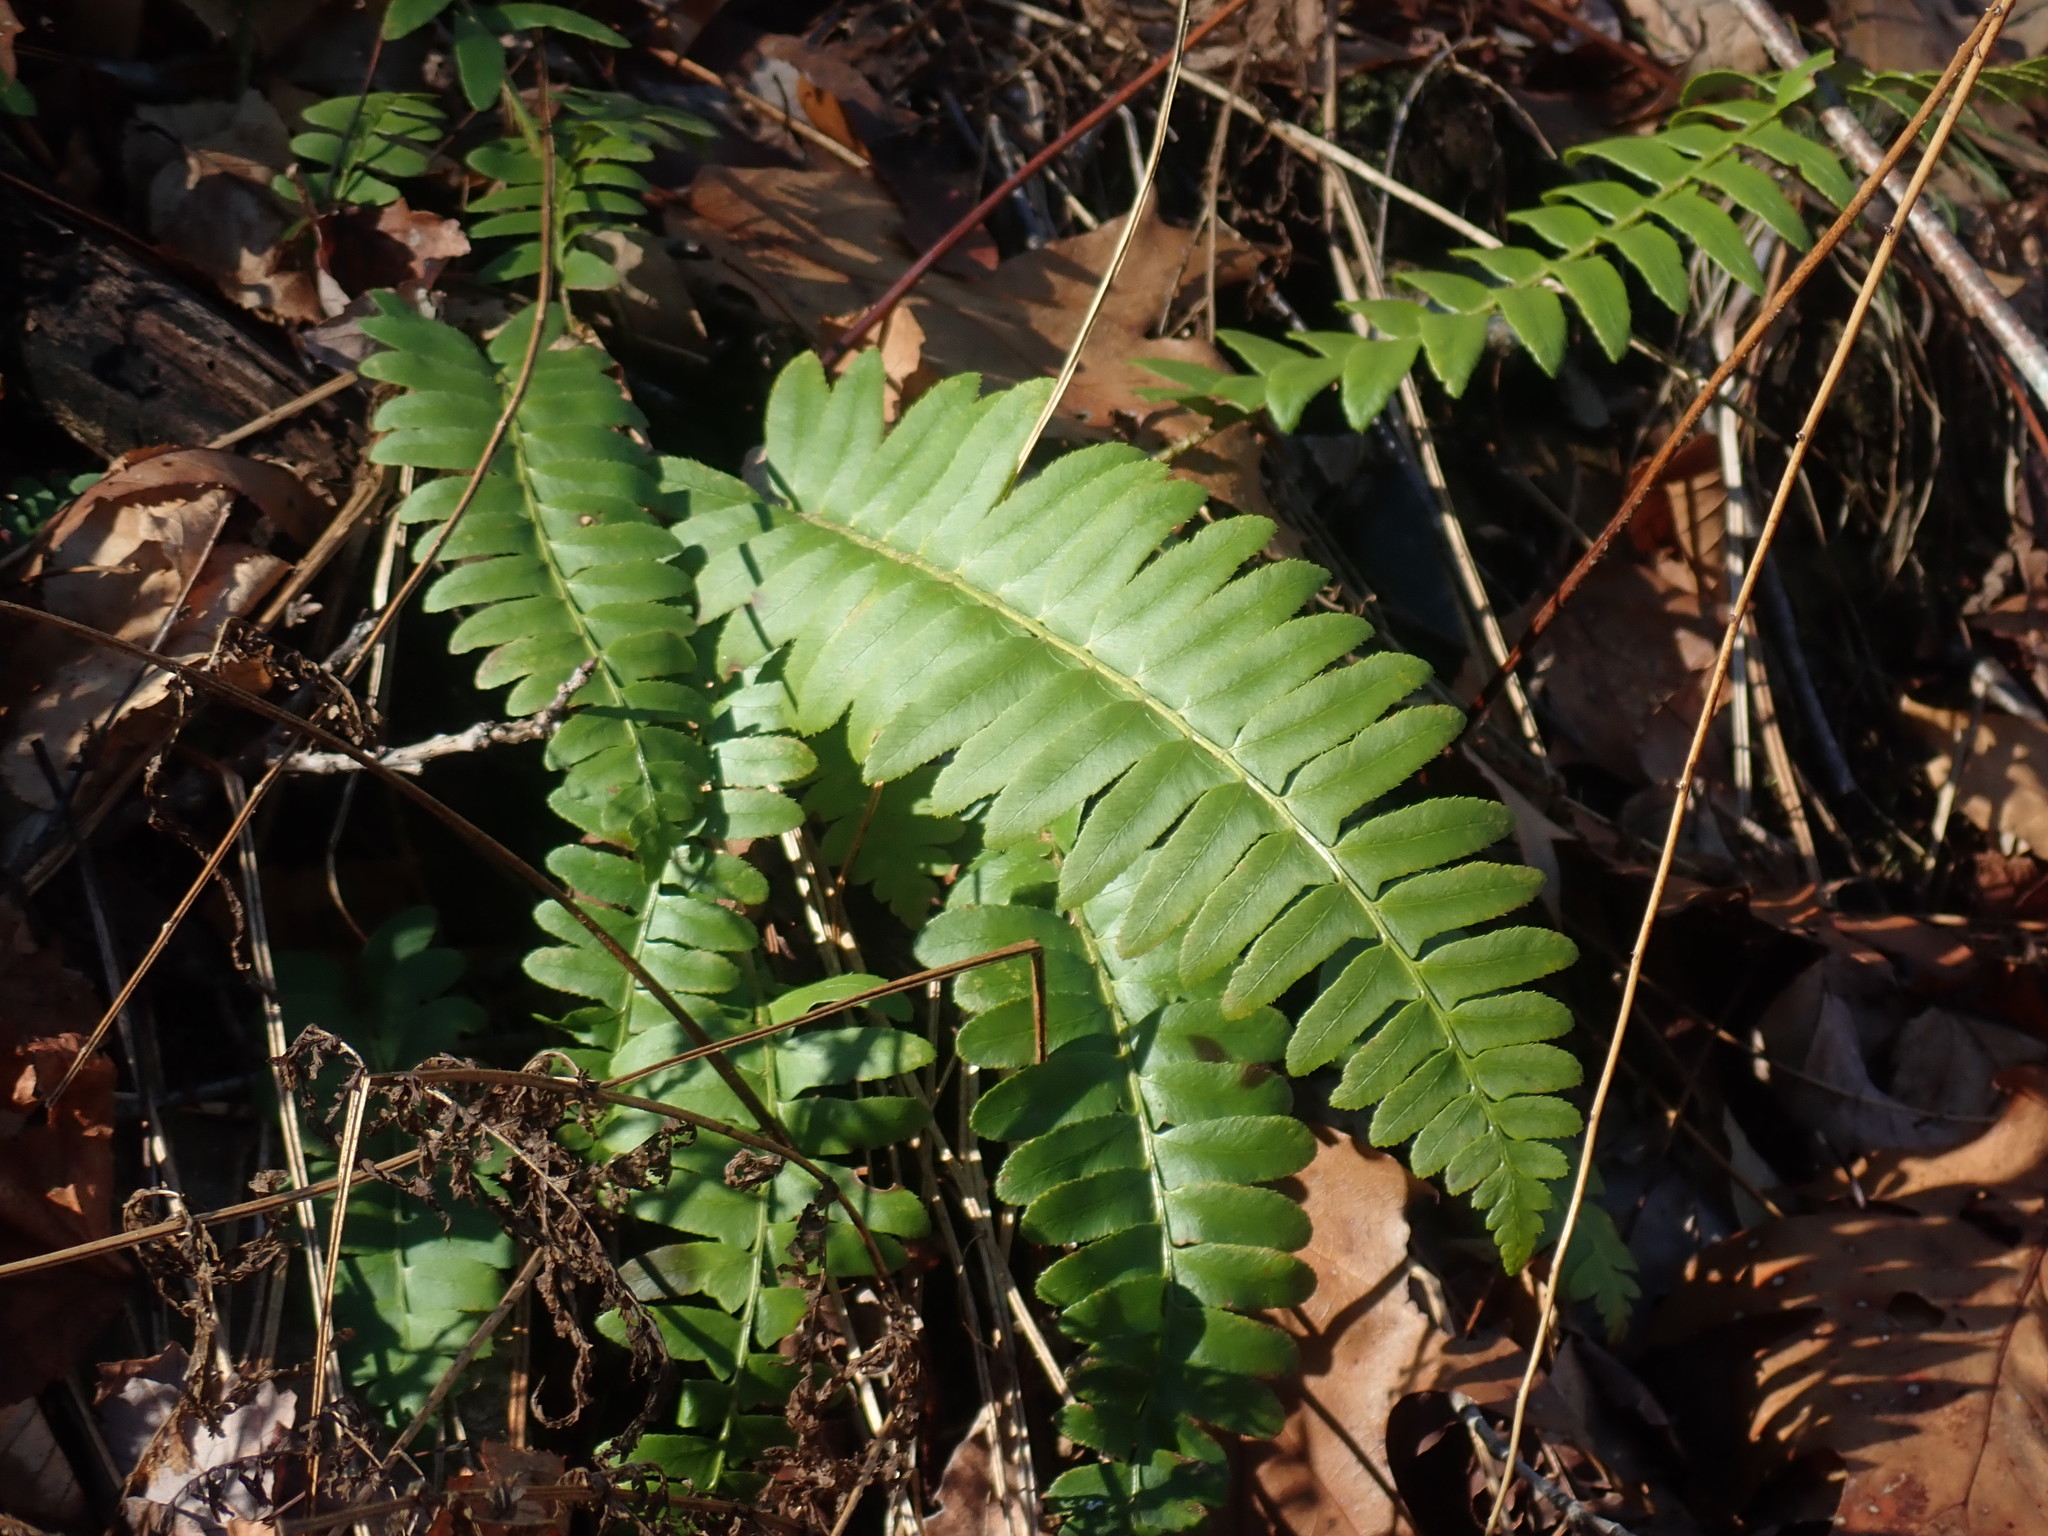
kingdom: Plantae
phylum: Tracheophyta
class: Polypodiopsida
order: Polypodiales
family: Dryopteridaceae
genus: Polystichum
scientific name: Polystichum acrostichoides
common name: Christmas fern
